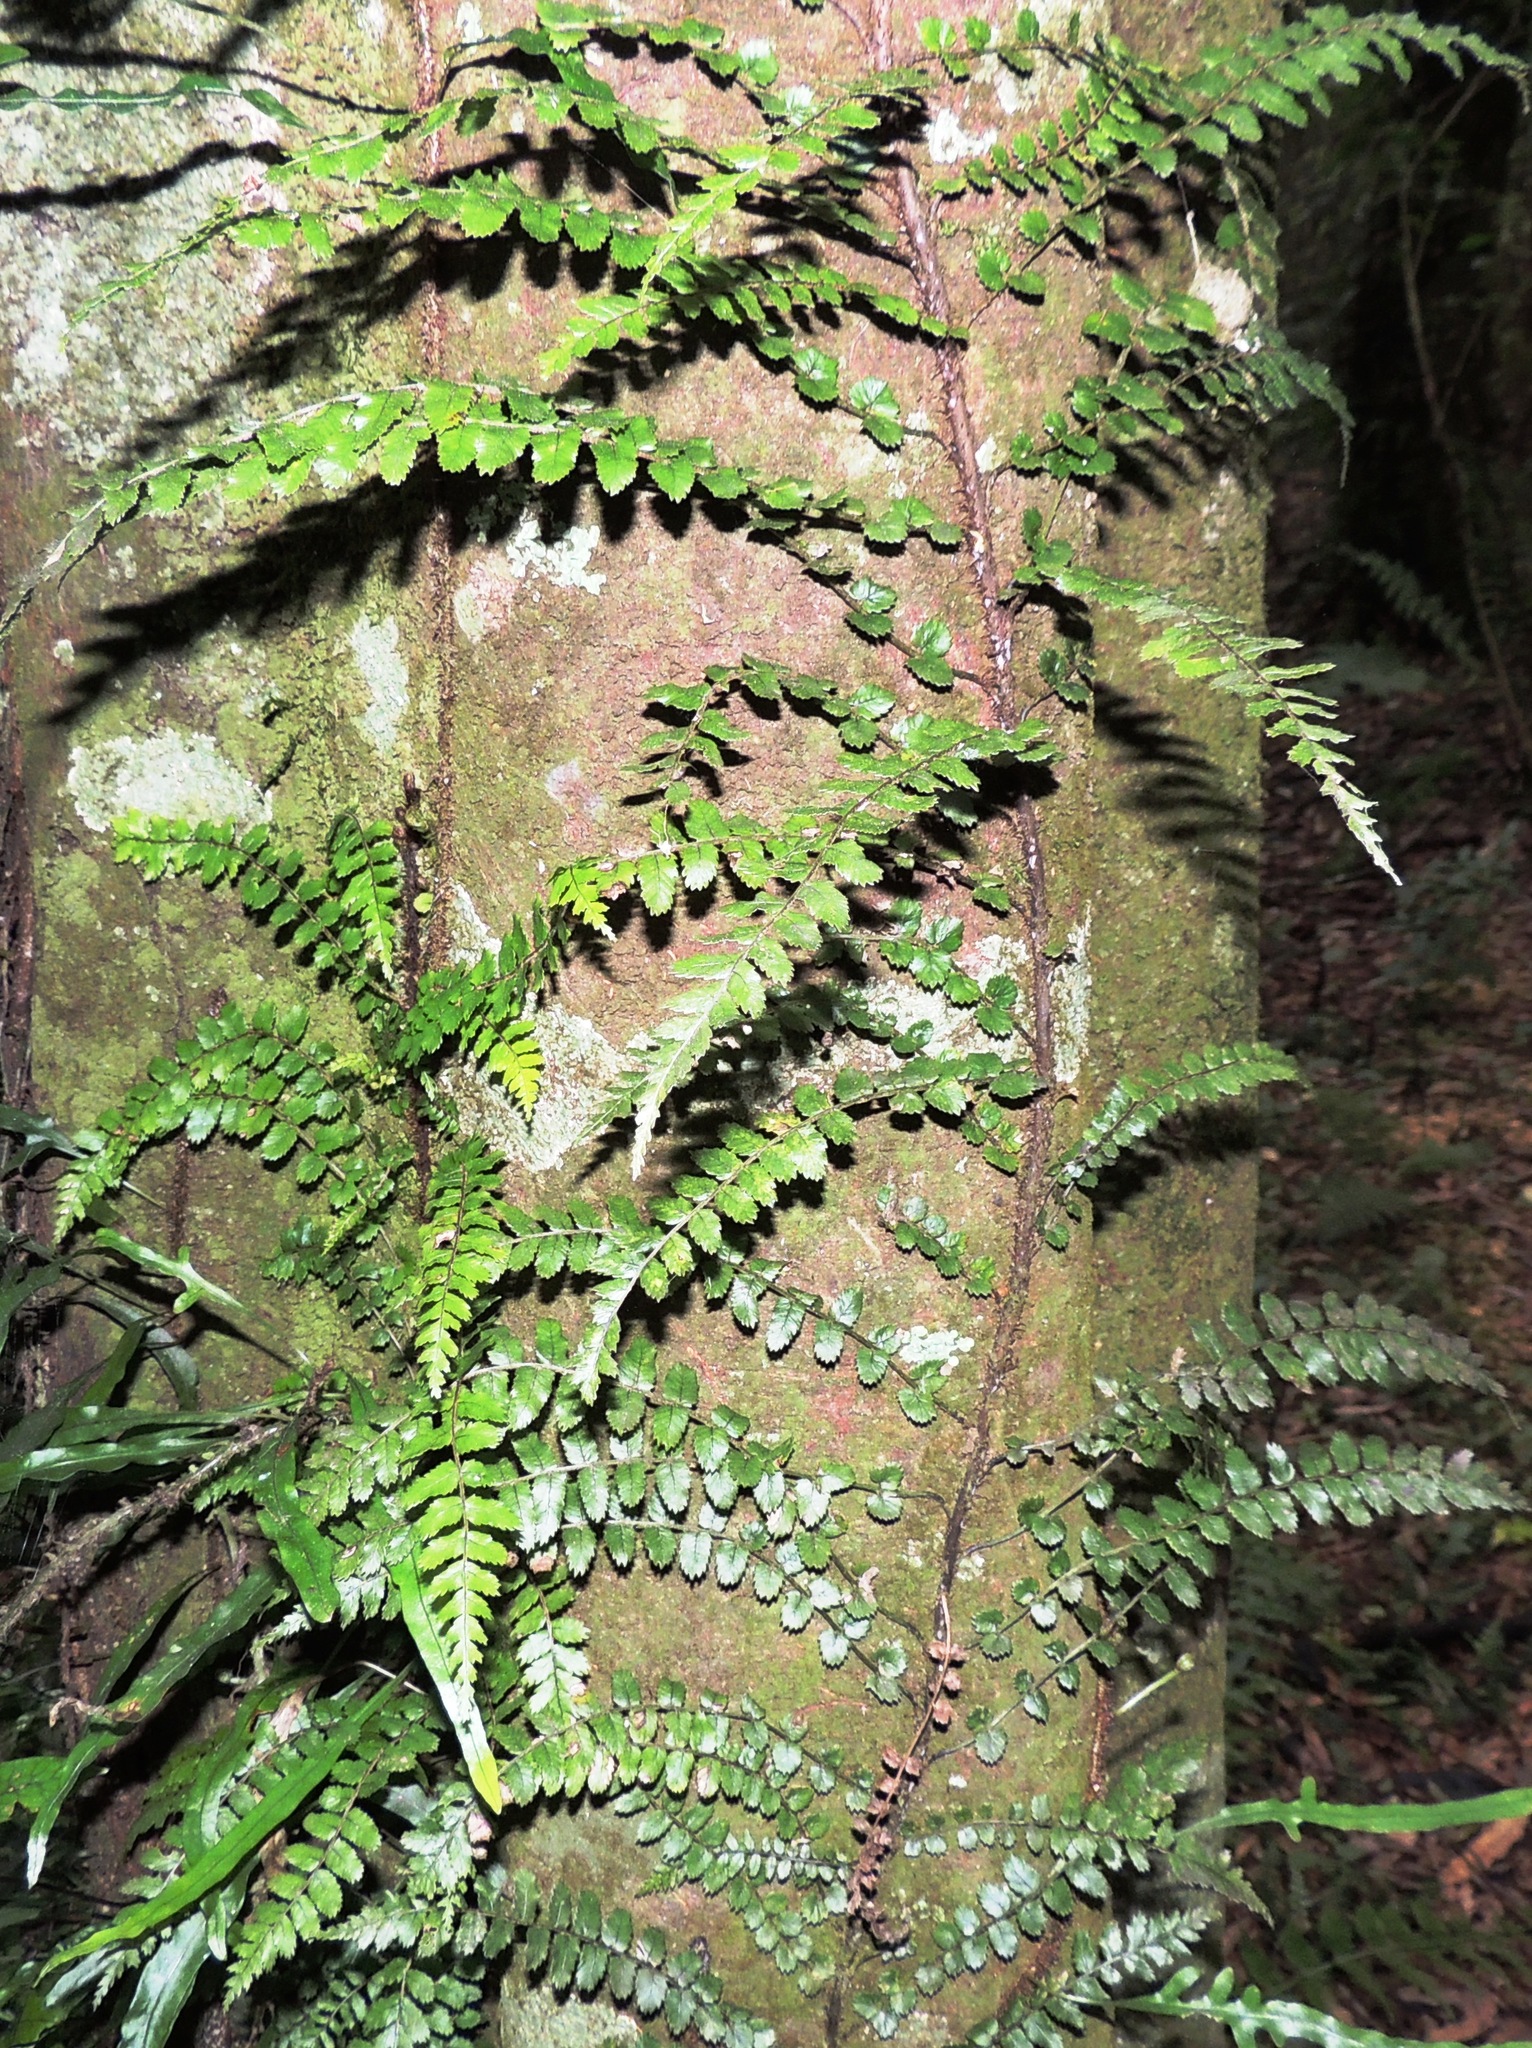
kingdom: Plantae
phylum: Tracheophyta
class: Polypodiopsida
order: Polypodiales
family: Blechnaceae
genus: Icarus
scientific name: Icarus filiformis
